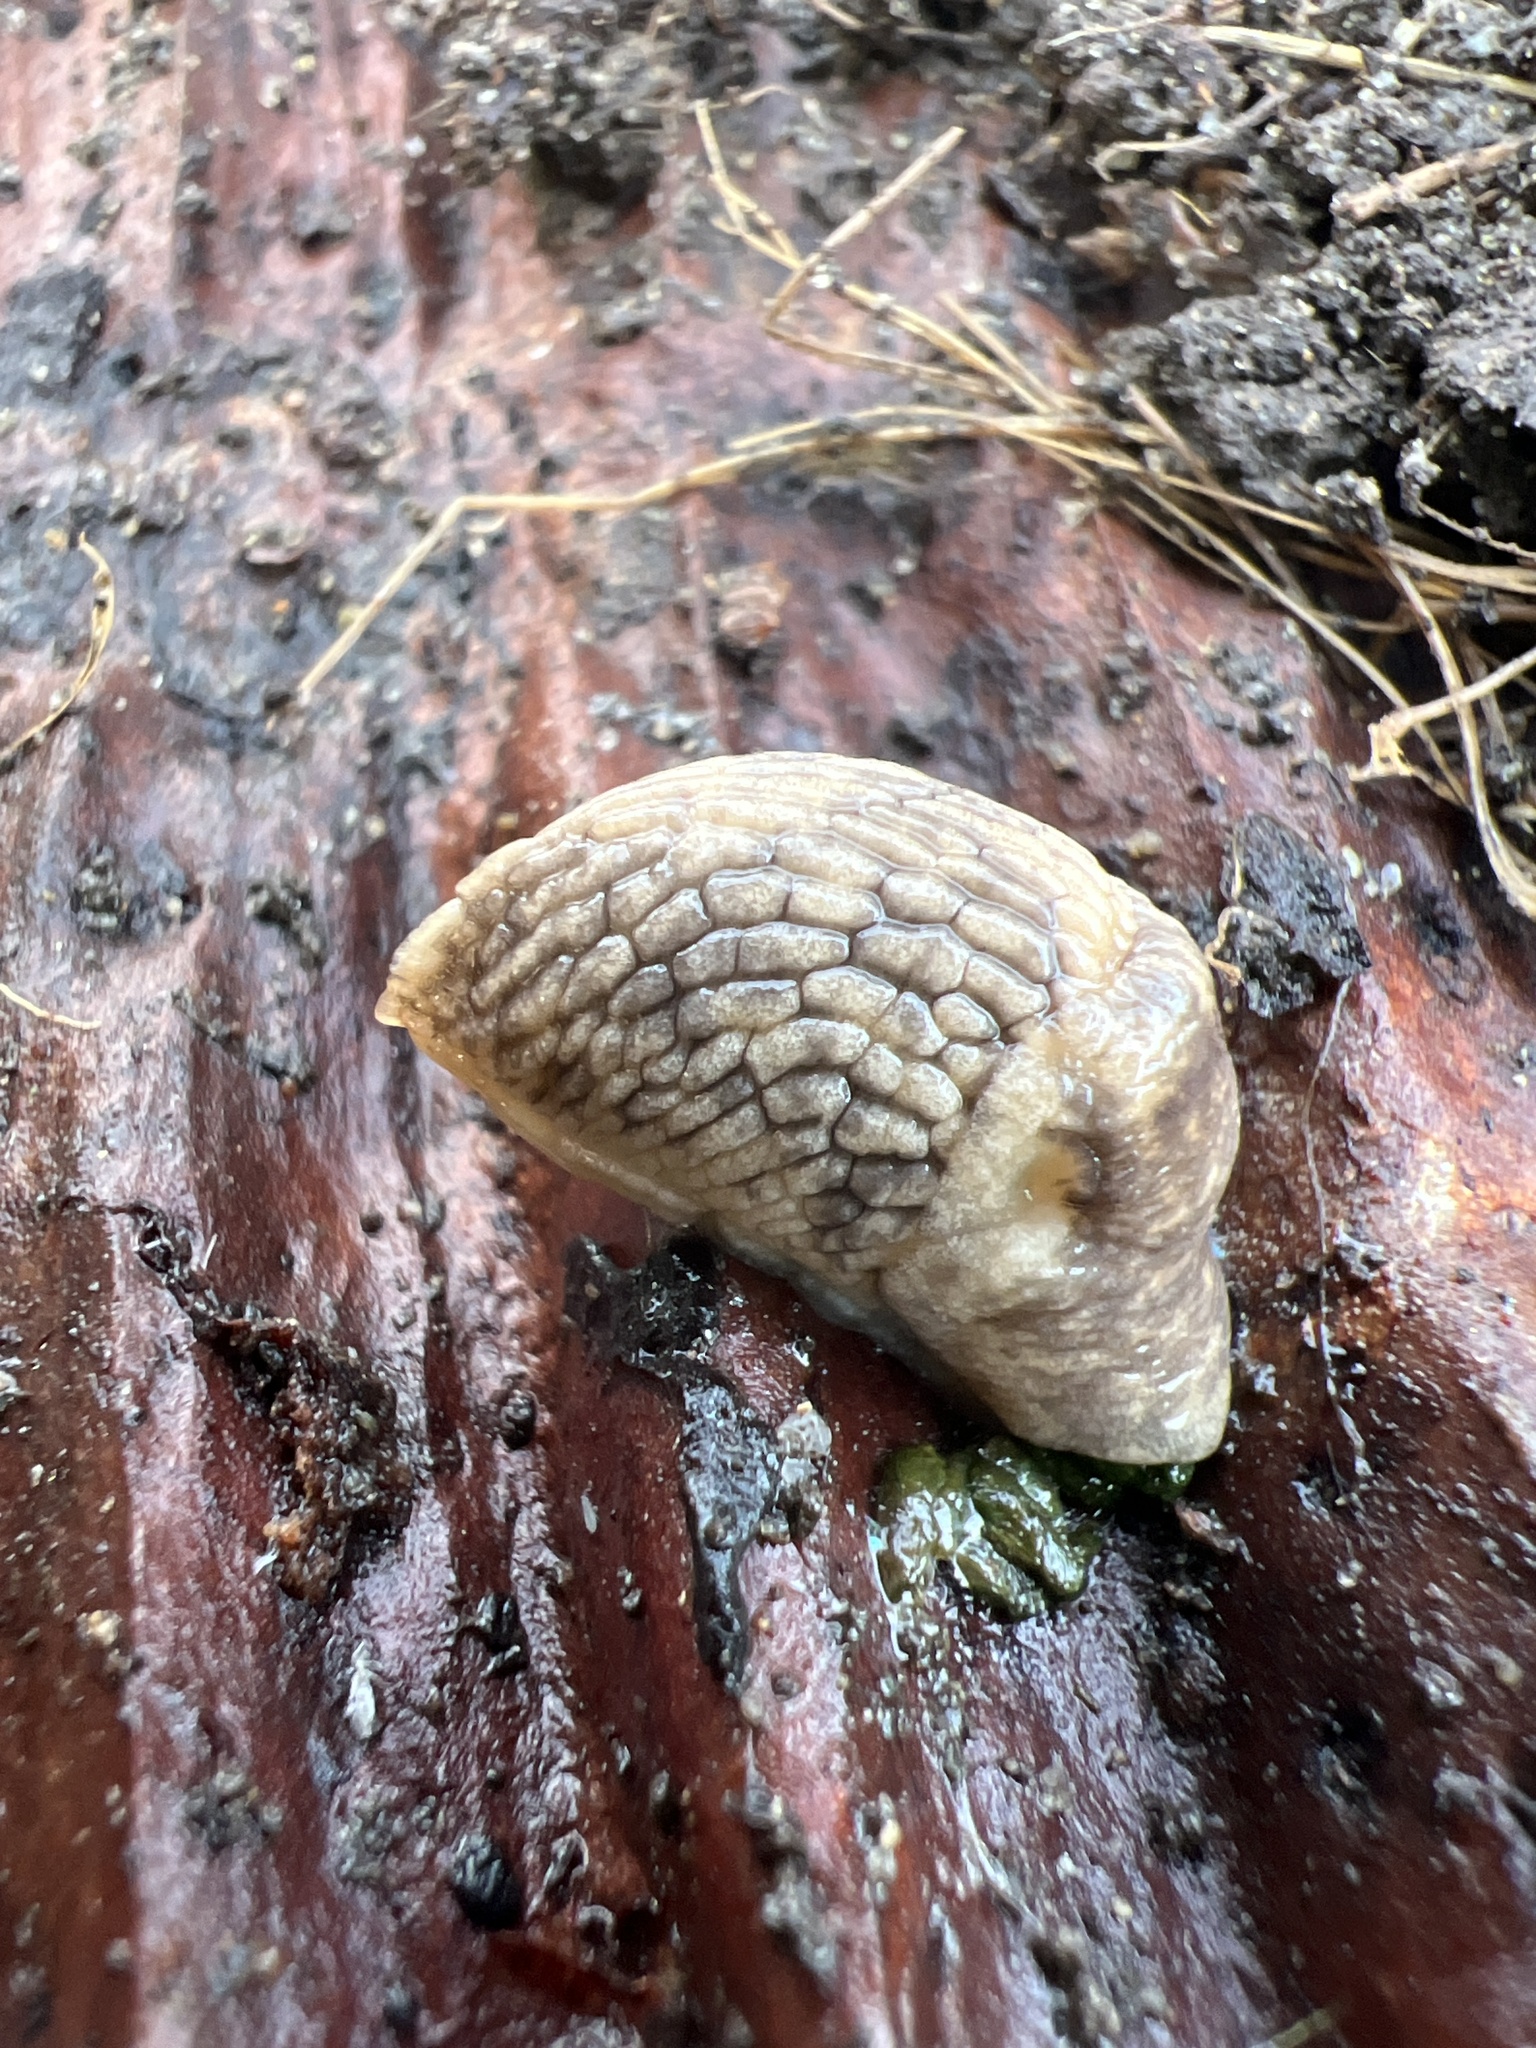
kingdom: Animalia
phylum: Mollusca
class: Gastropoda
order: Stylommatophora
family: Agriolimacidae
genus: Deroceras
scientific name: Deroceras reticulatum
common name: Gray field slug
